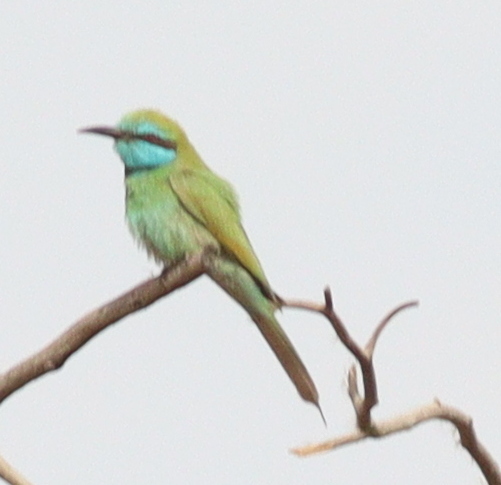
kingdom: Animalia
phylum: Chordata
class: Aves
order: Coraciiformes
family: Meropidae
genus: Merops
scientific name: Merops cyanophrys
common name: Arabian green bee-eater
